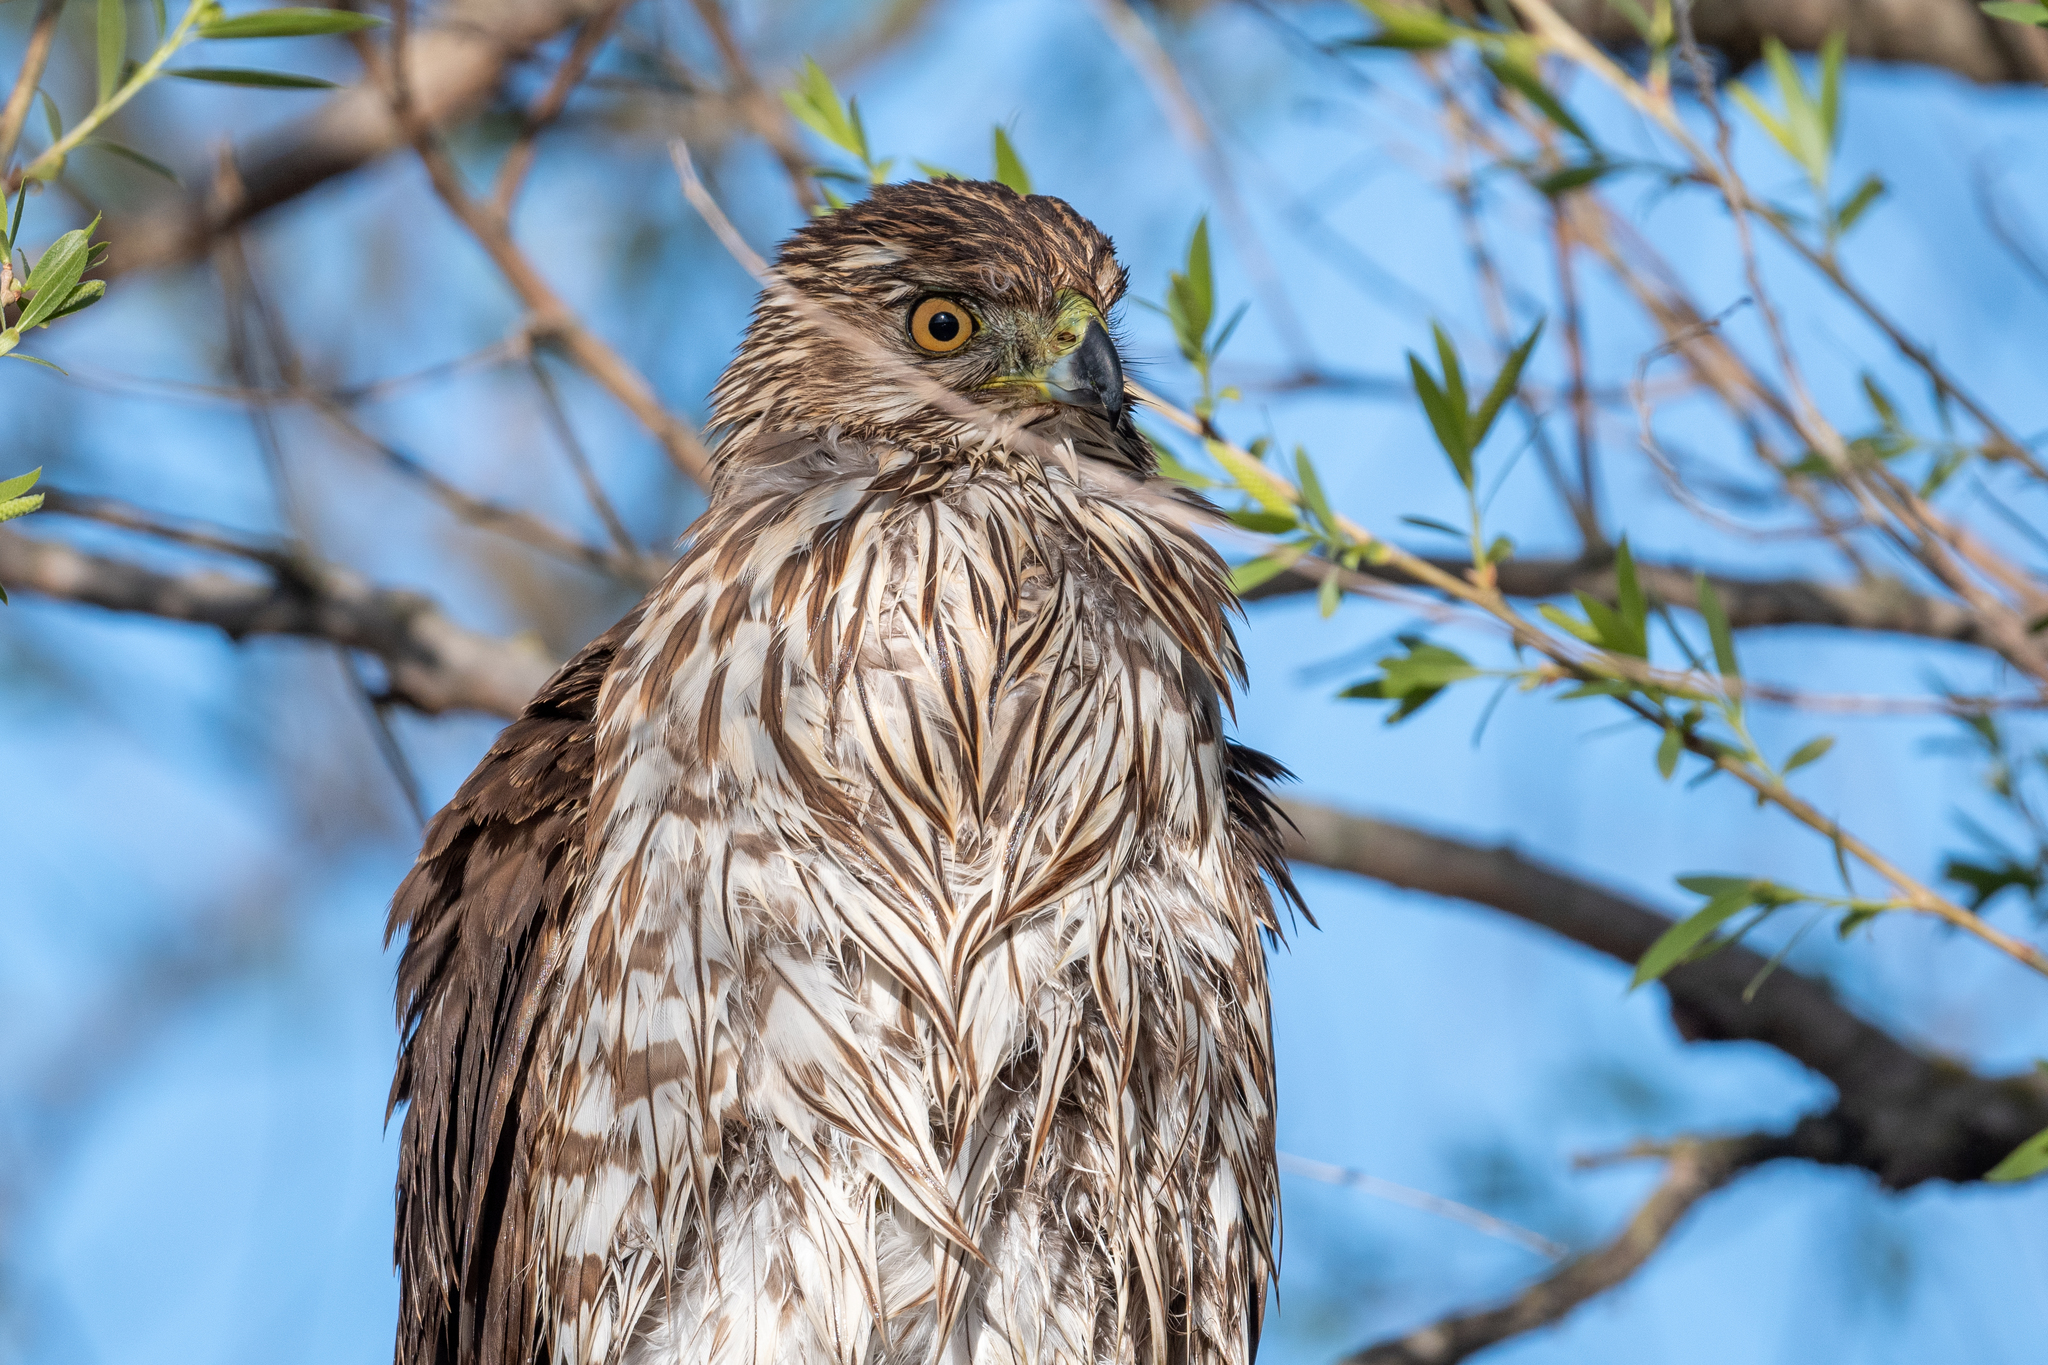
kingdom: Animalia
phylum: Chordata
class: Aves
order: Accipitriformes
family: Accipitridae
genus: Accipiter
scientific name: Accipiter cooperii
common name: Cooper's hawk
